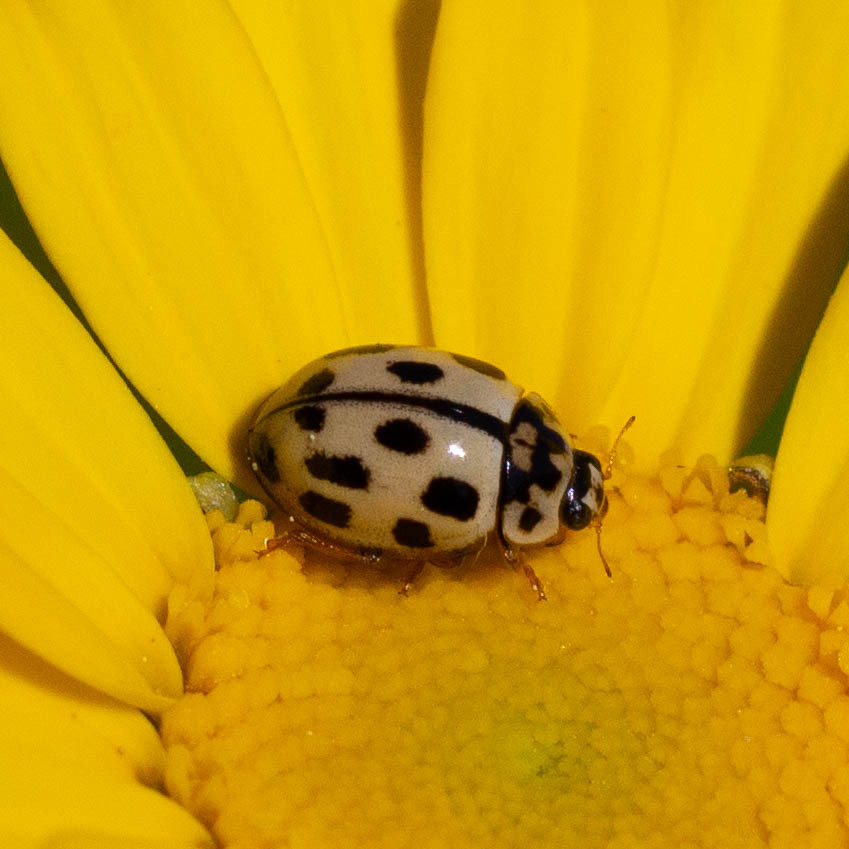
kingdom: Animalia
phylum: Arthropoda
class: Insecta
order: Coleoptera
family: Coccinellidae
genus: Propylaea
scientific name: Propylaea quatuordecimpunctata
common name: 14-spotted ladybird beetle
